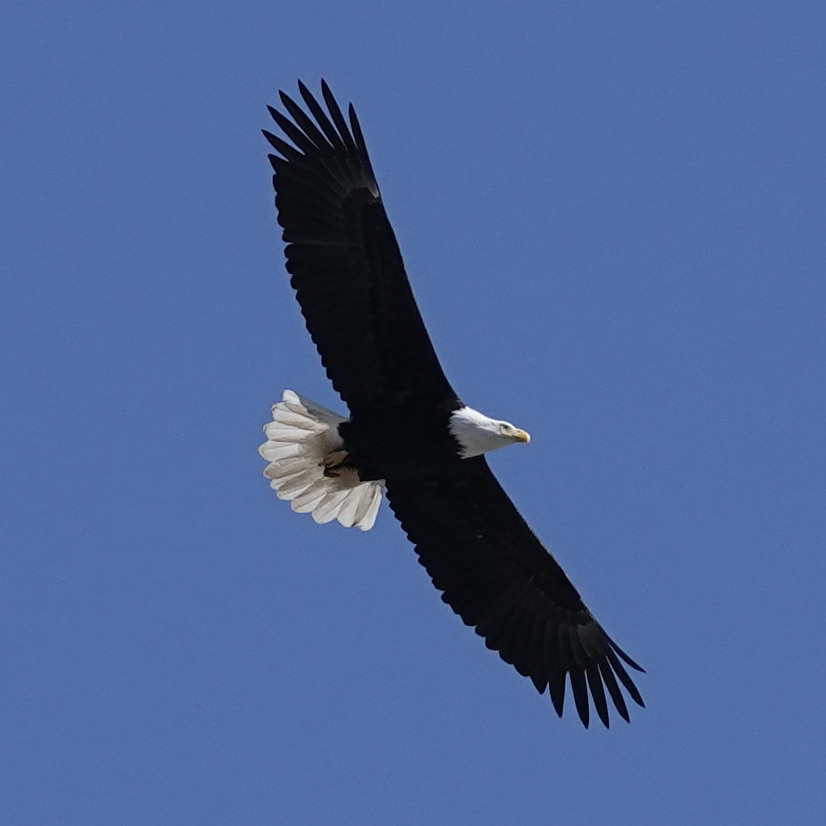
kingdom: Animalia
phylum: Chordata
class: Aves
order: Accipitriformes
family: Accipitridae
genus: Haliaeetus
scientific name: Haliaeetus leucocephalus
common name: Bald eagle
